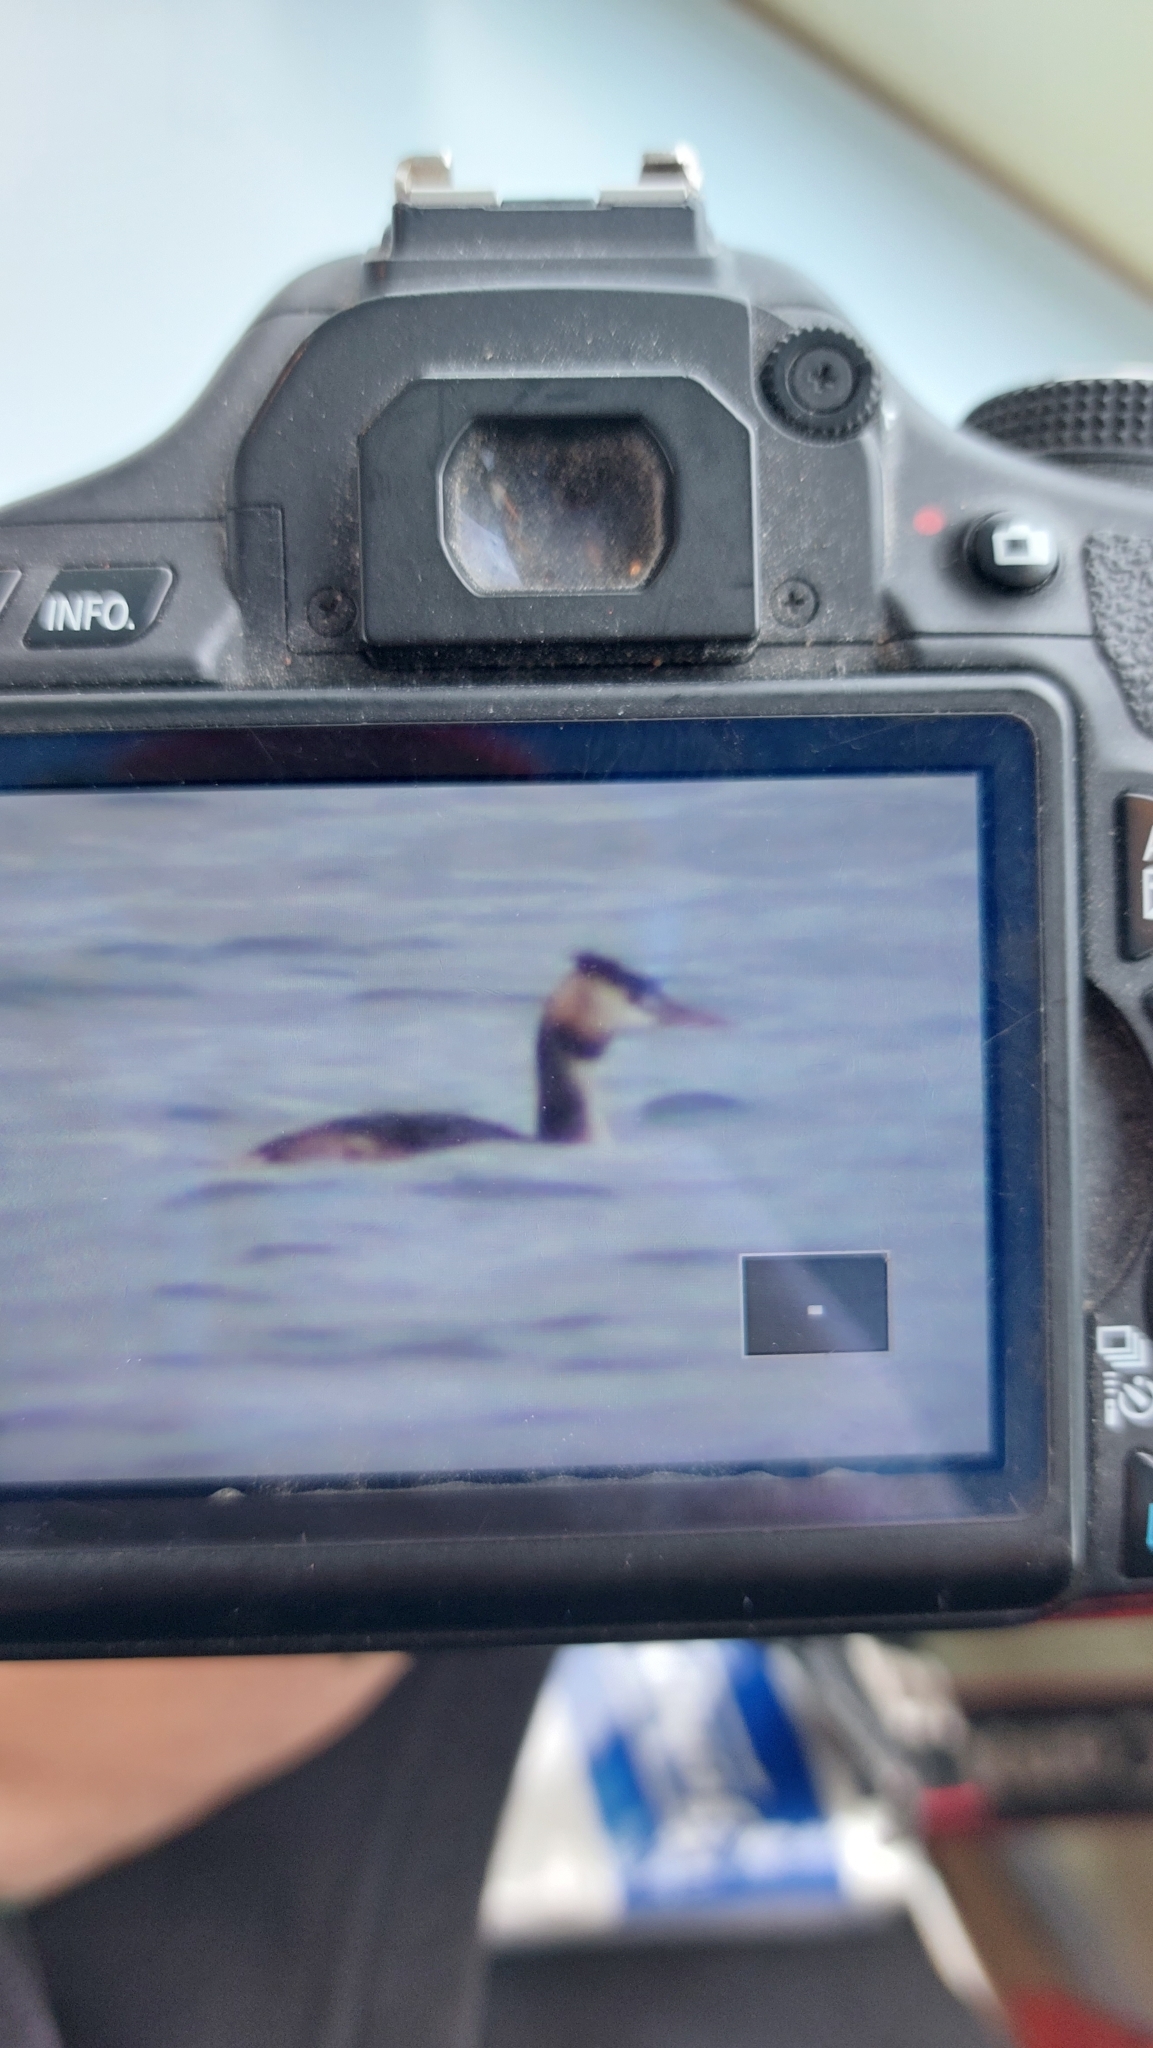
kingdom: Animalia
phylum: Chordata
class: Aves
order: Podicipediformes
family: Podicipedidae
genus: Podiceps
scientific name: Podiceps cristatus
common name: Great crested grebe
